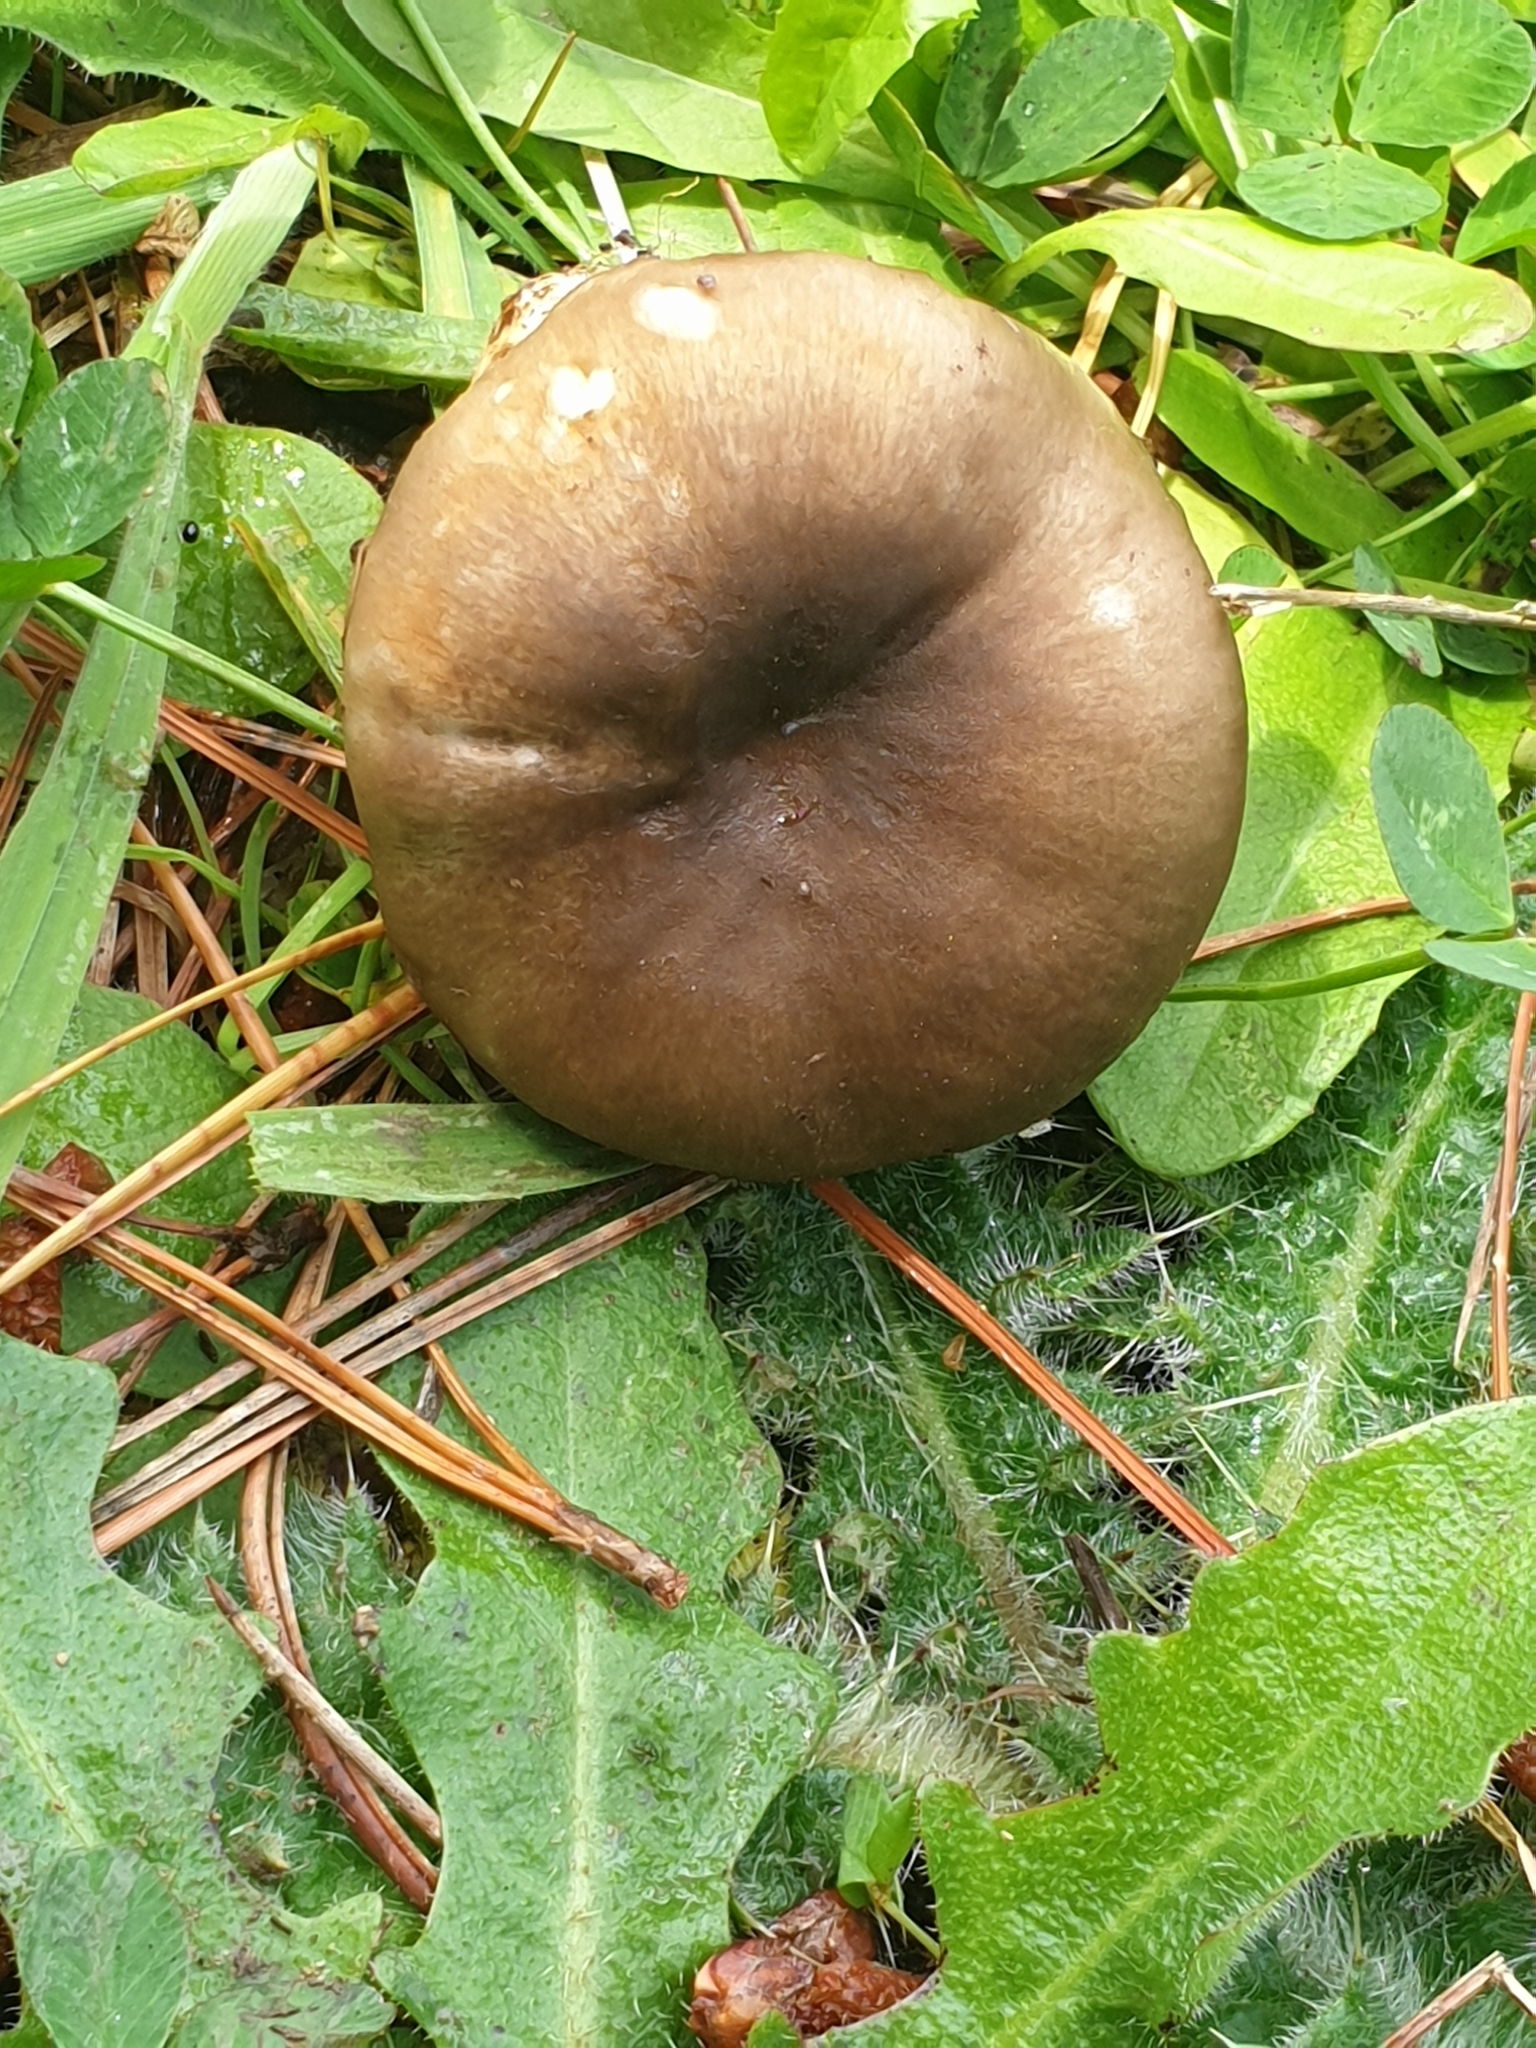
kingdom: Fungi
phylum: Basidiomycota
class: Agaricomycetes
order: Russulales
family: Russulaceae
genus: Russula
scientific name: Russula amoenolens
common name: Camembert brittlegill
